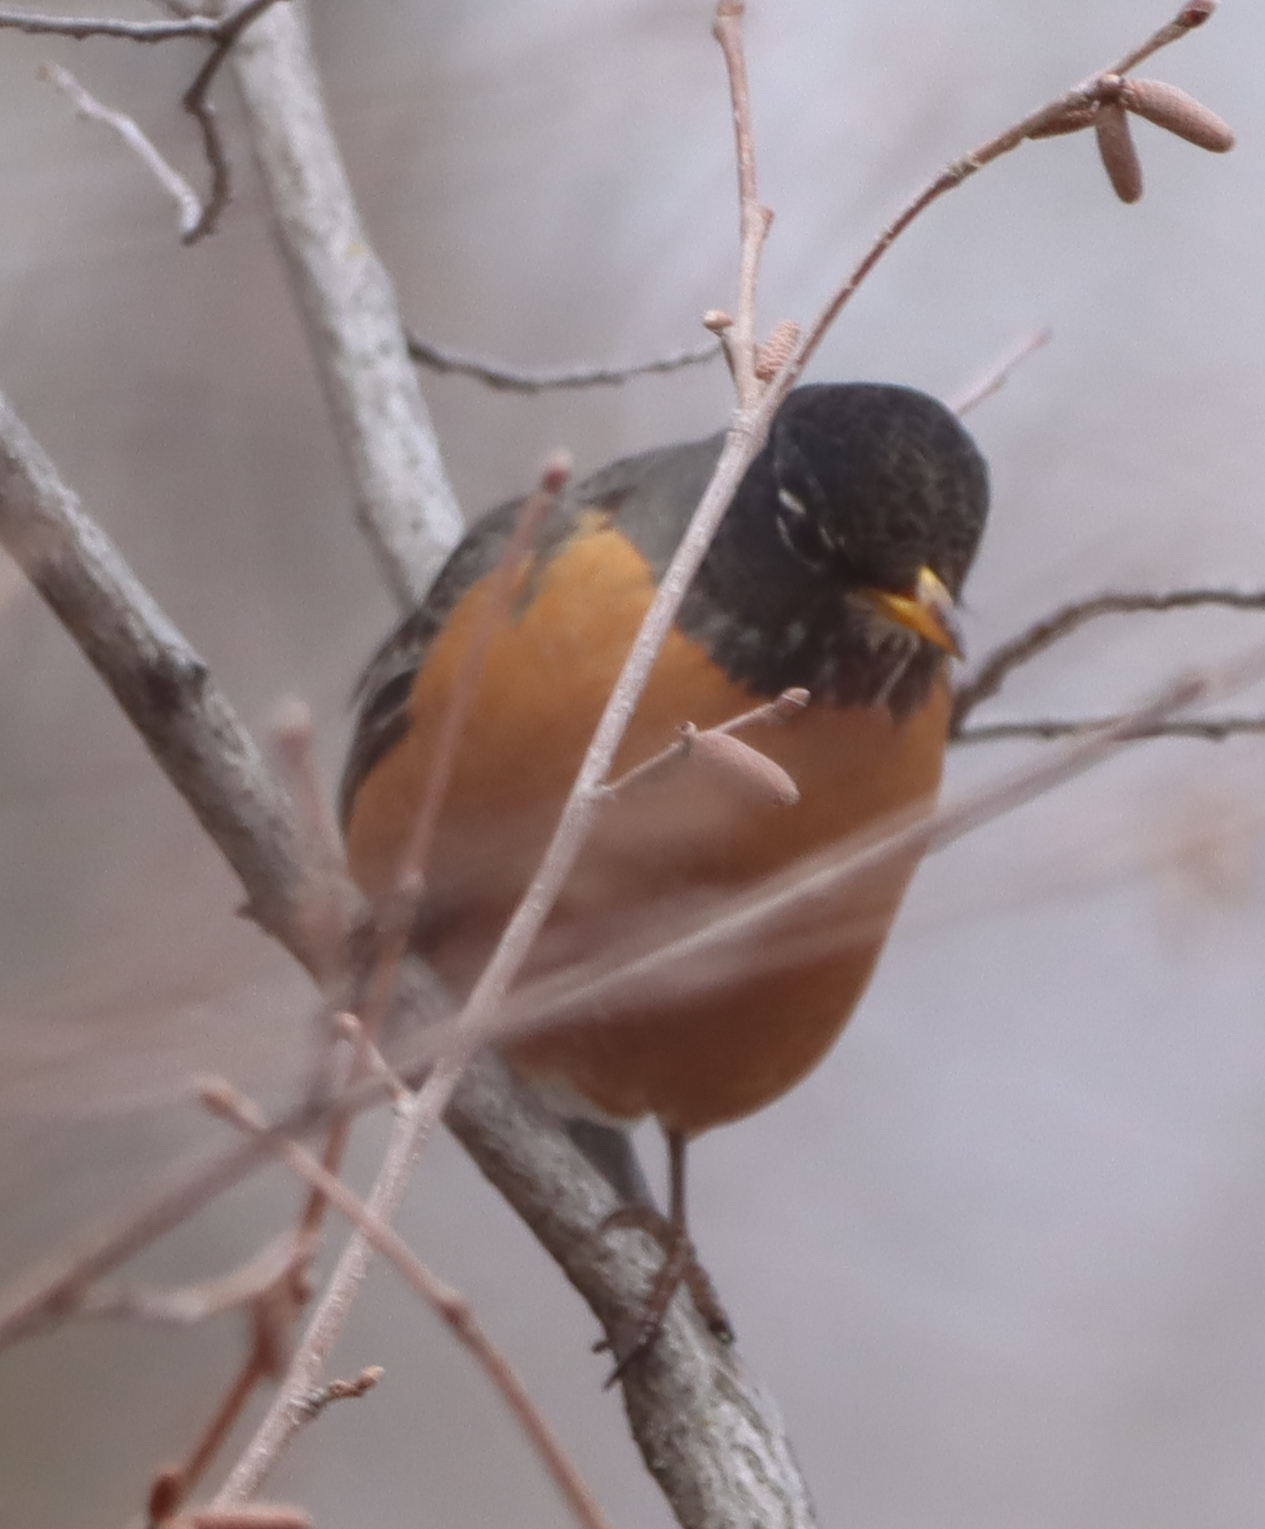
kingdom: Animalia
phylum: Chordata
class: Aves
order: Passeriformes
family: Turdidae
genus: Turdus
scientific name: Turdus migratorius
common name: American robin
